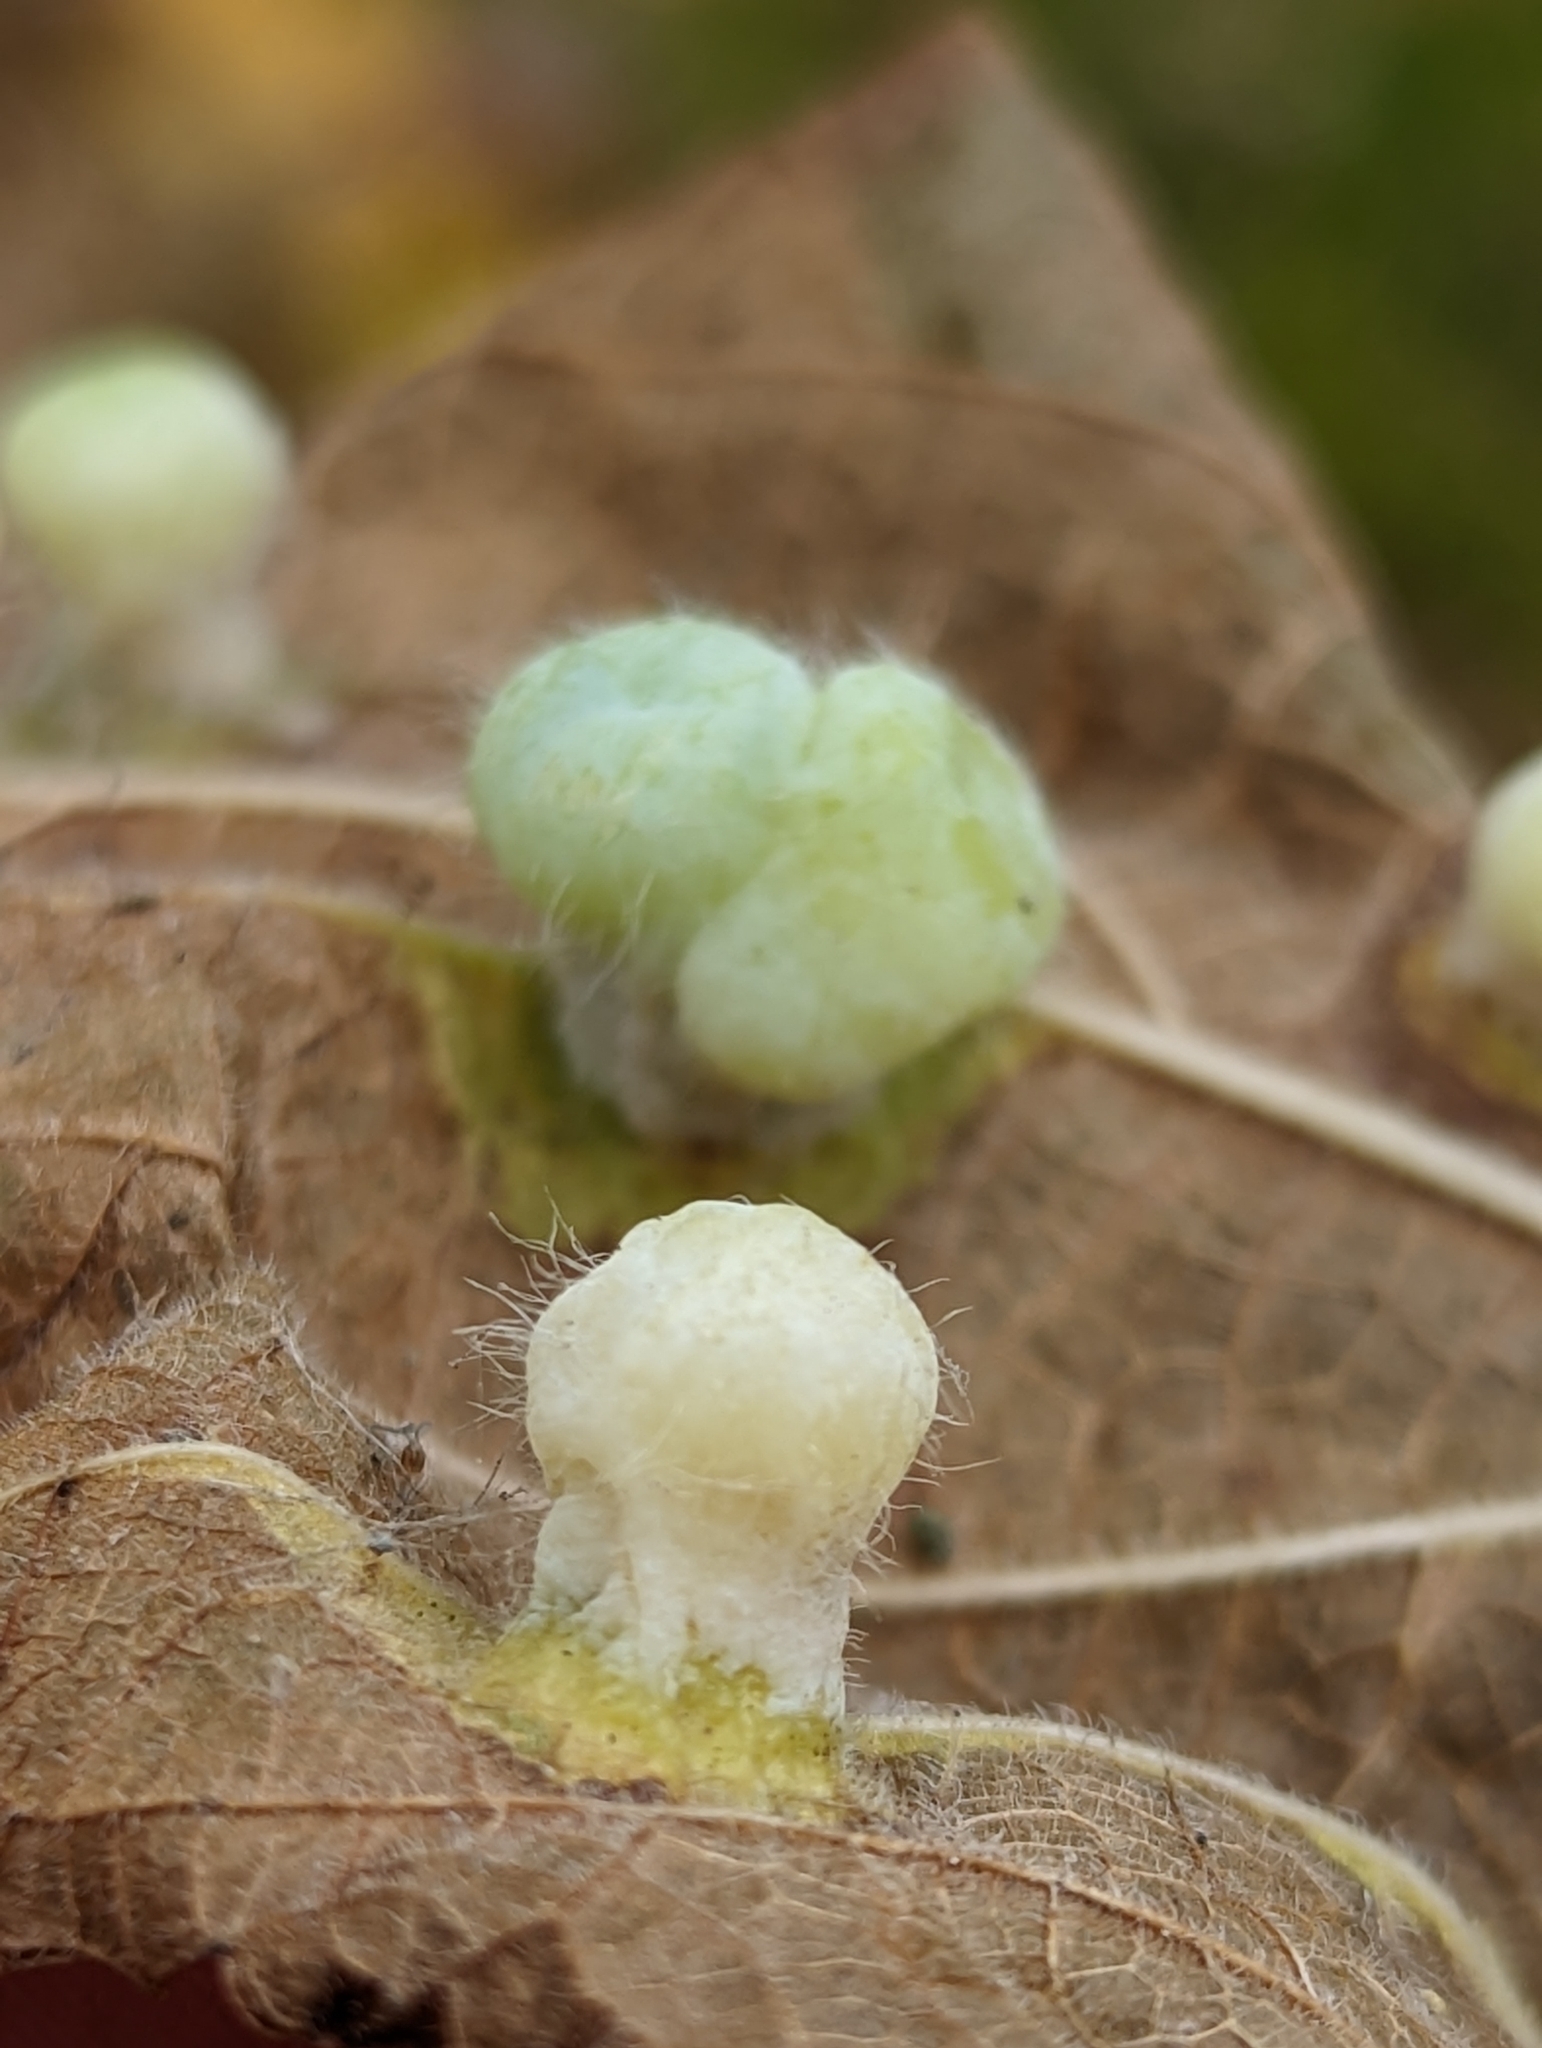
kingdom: Animalia
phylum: Arthropoda
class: Insecta
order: Hemiptera
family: Aphalaridae
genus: Pachypsylla
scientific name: Pachypsylla celtidismamma
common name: Hackberry nipplegall psyllid
